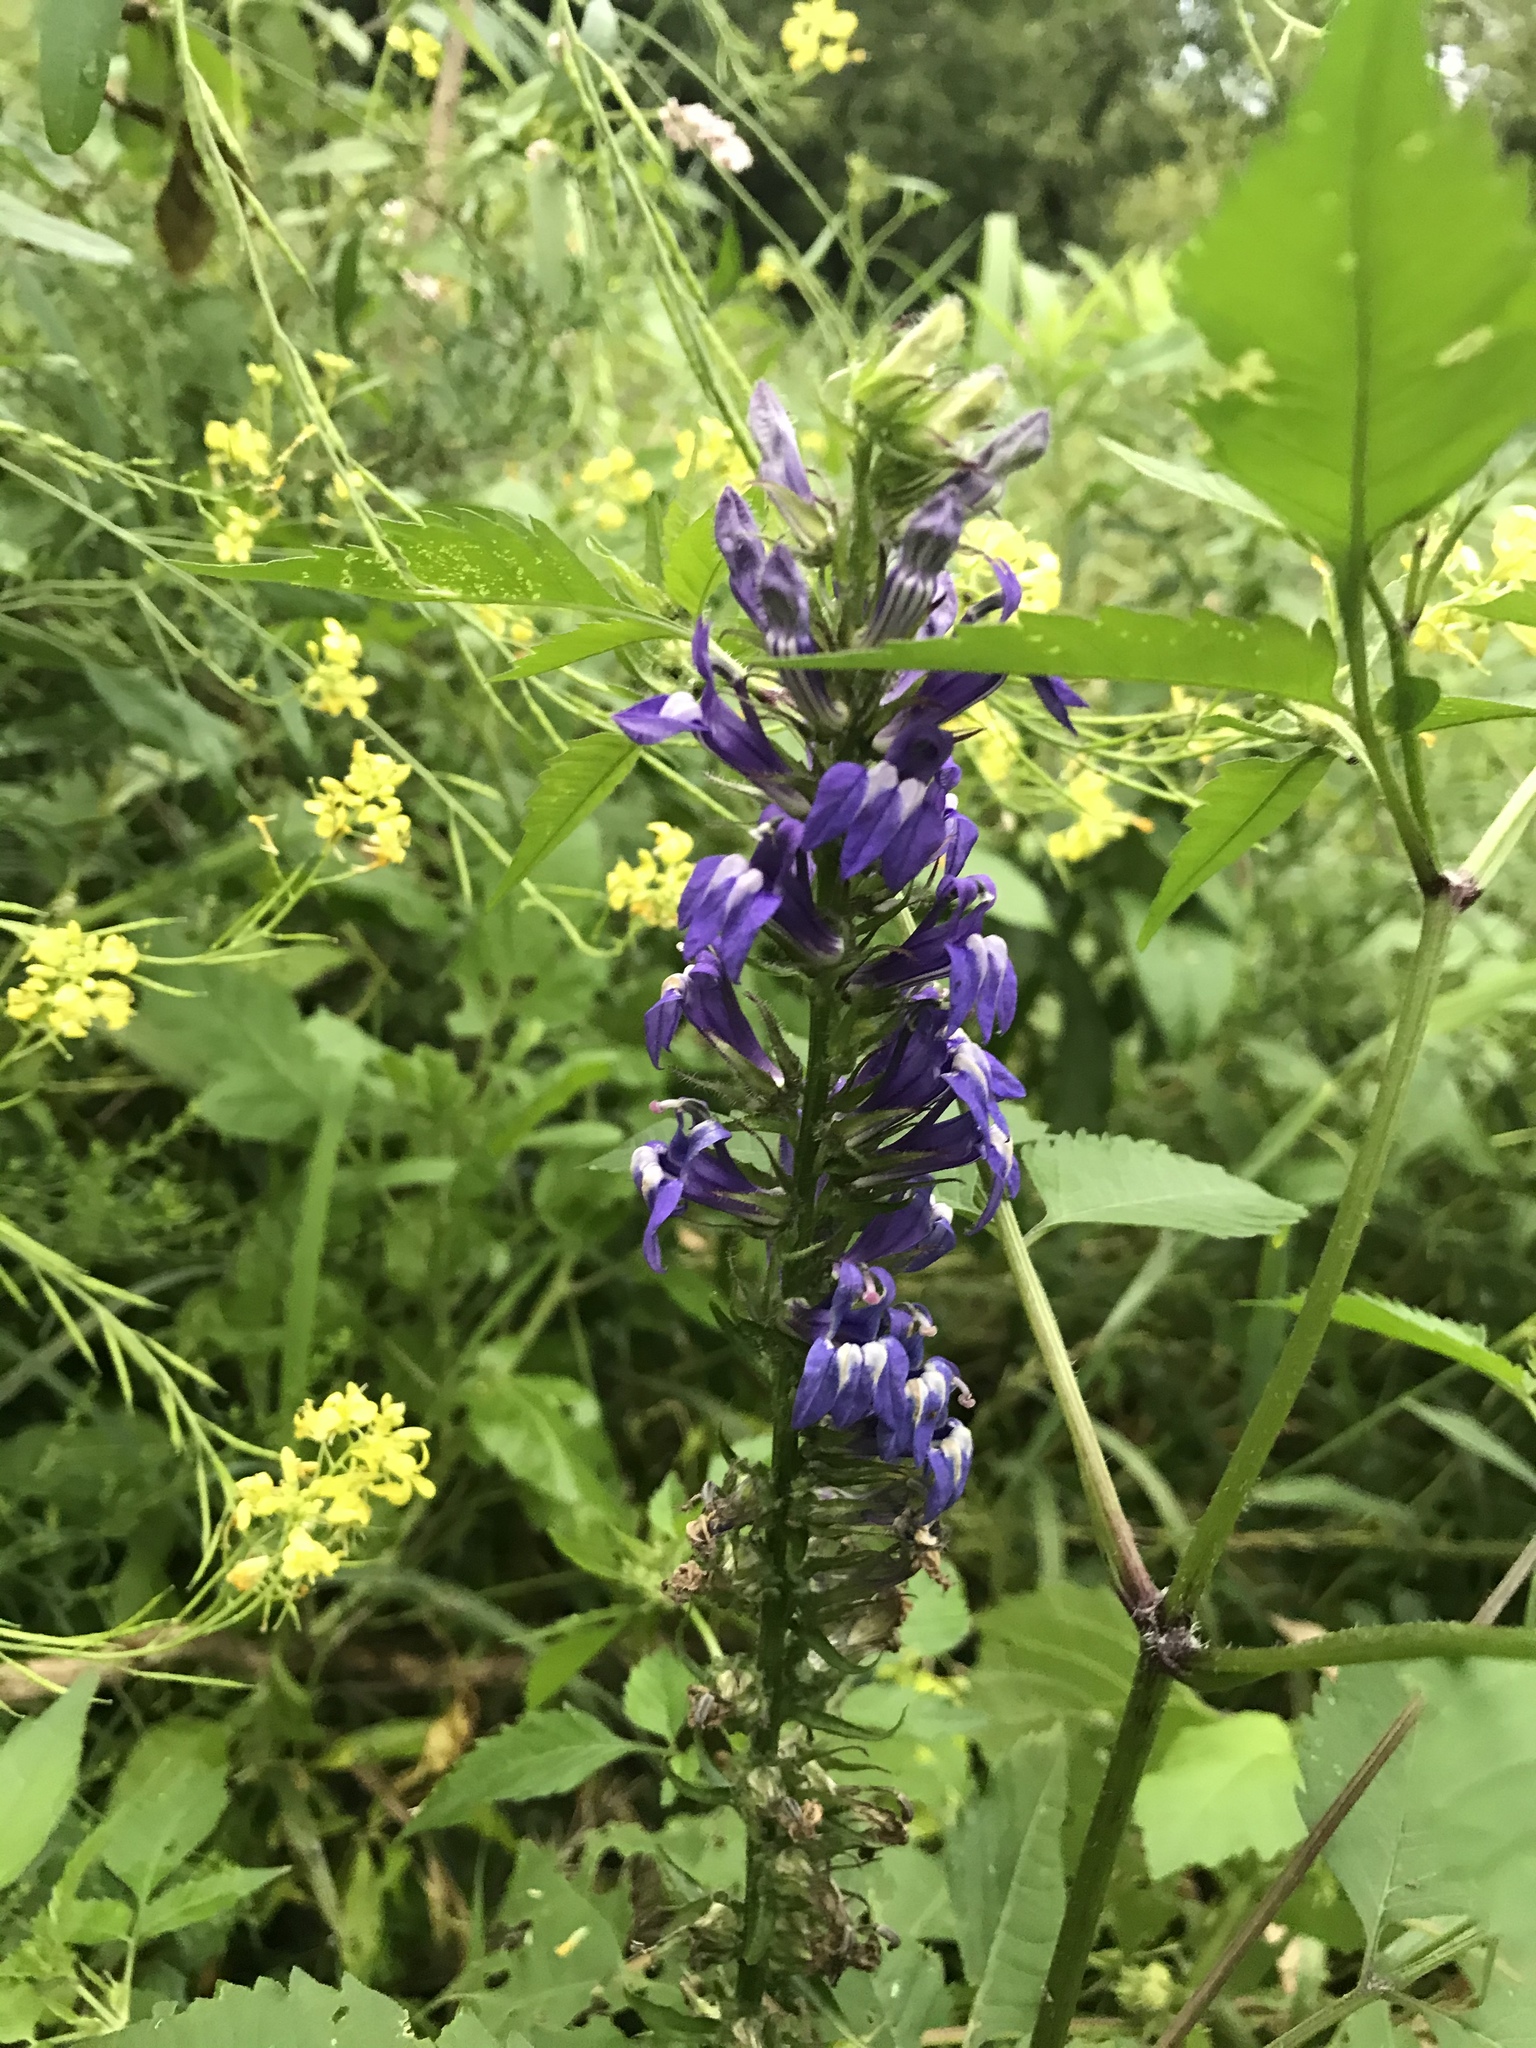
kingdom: Plantae
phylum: Tracheophyta
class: Magnoliopsida
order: Asterales
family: Campanulaceae
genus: Lobelia
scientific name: Lobelia siphilitica
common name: Great lobelia
